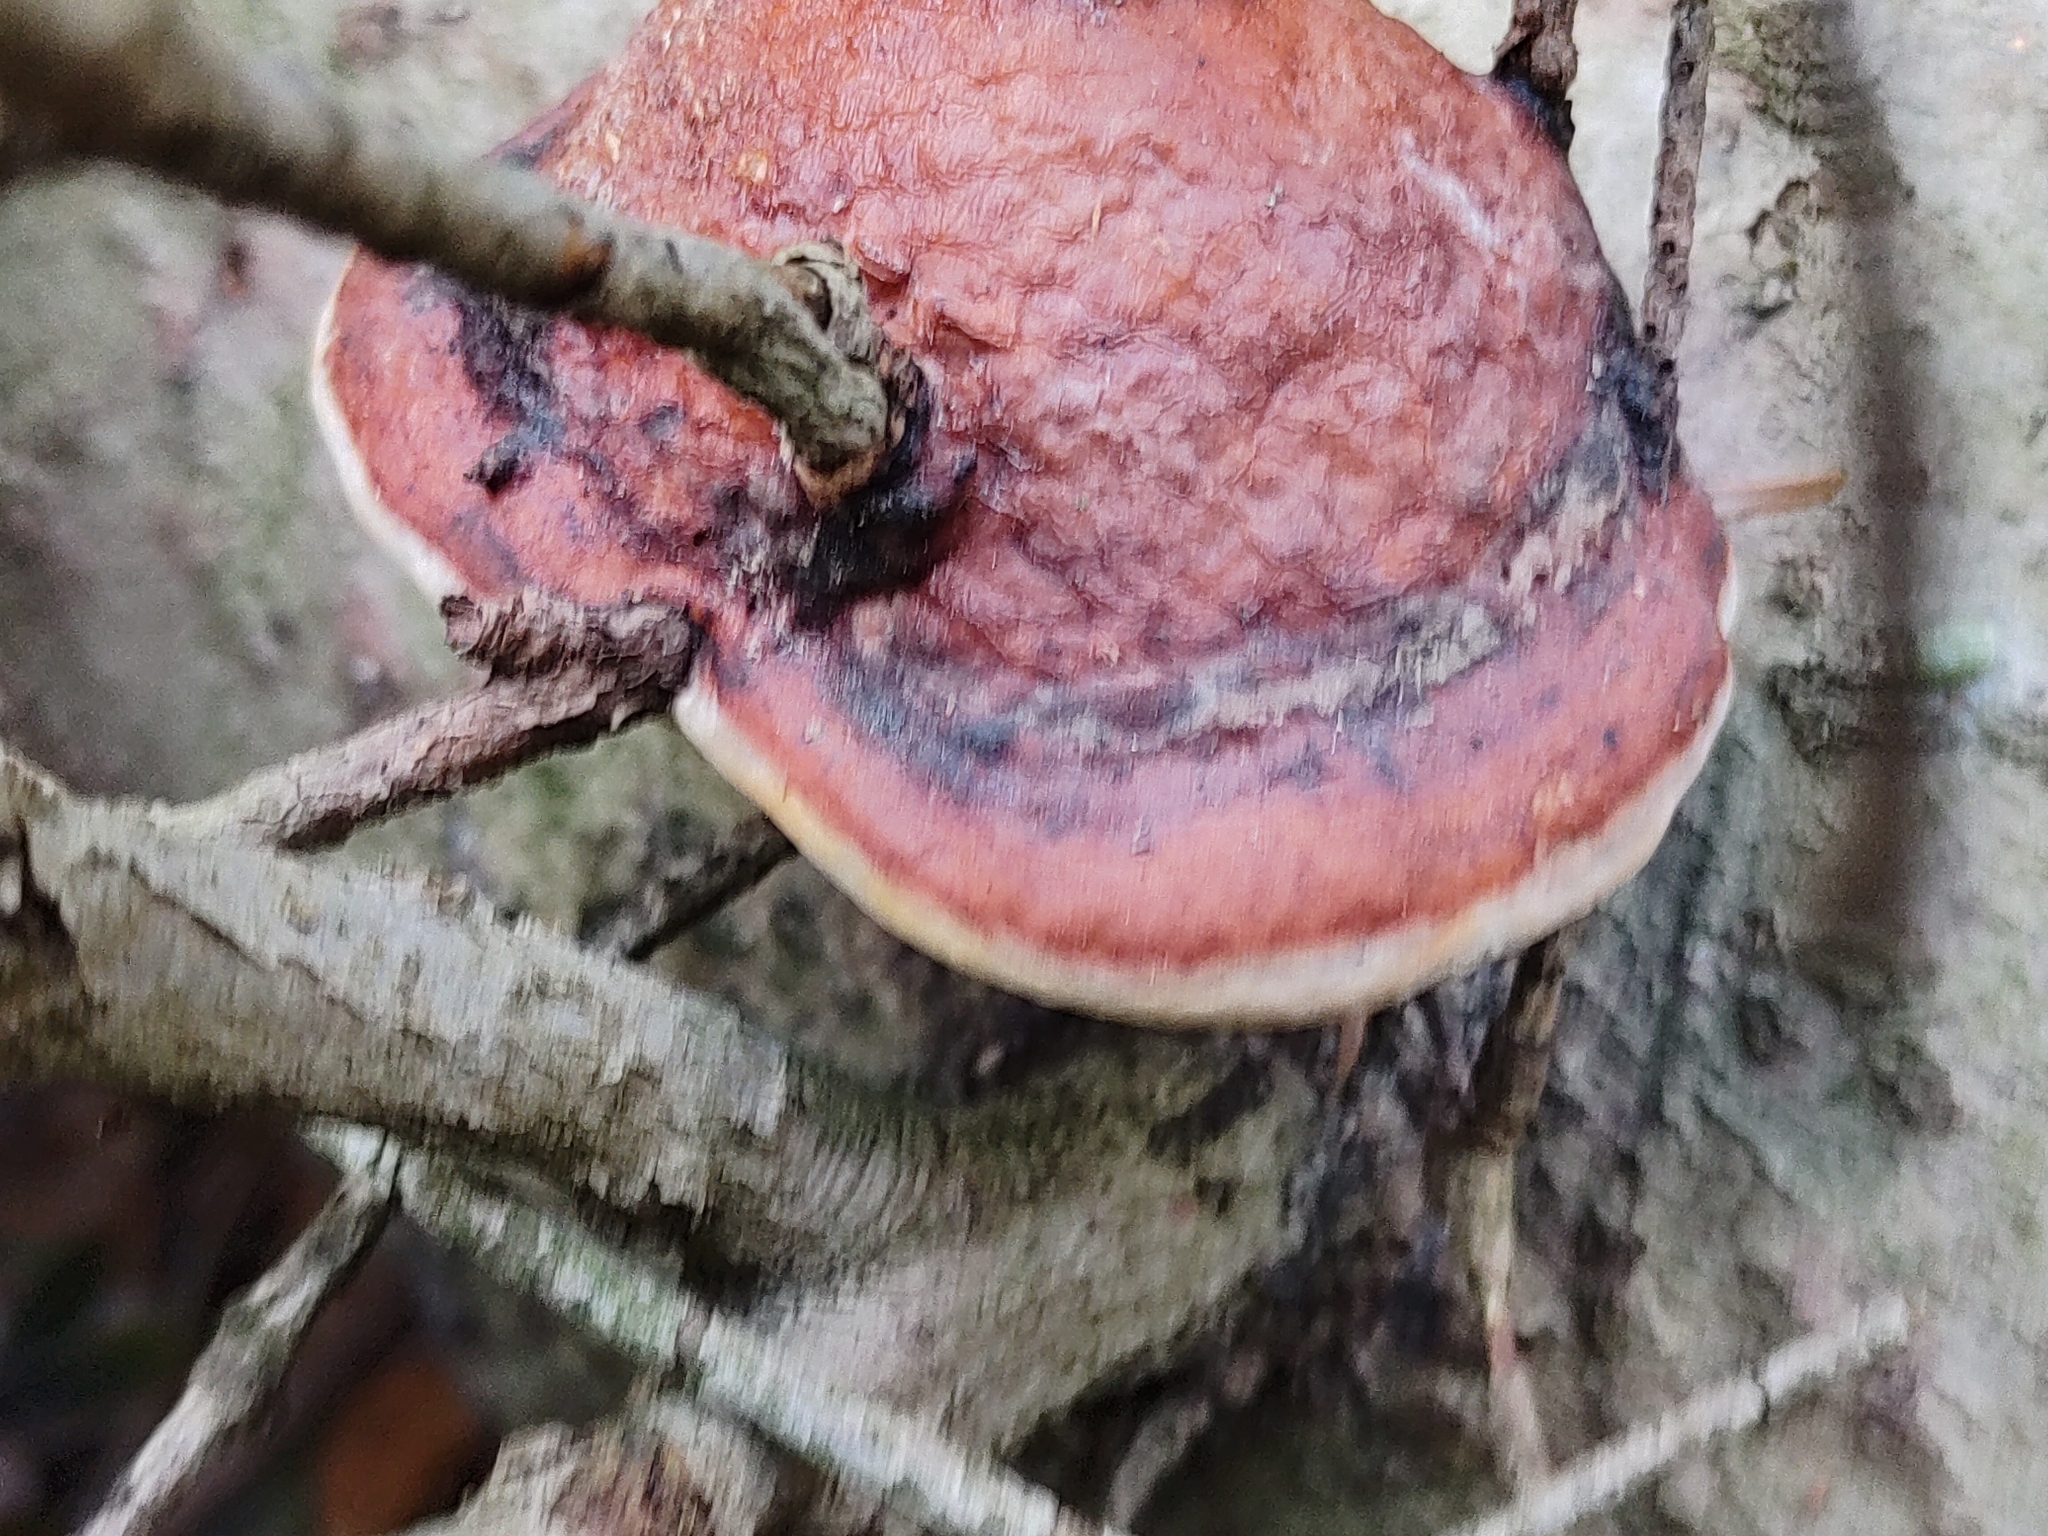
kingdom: Fungi
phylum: Basidiomycota
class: Agaricomycetes
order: Polyporales
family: Fomitopsidaceae
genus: Fomitopsis
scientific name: Fomitopsis pinicola
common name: Red-belted bracket
